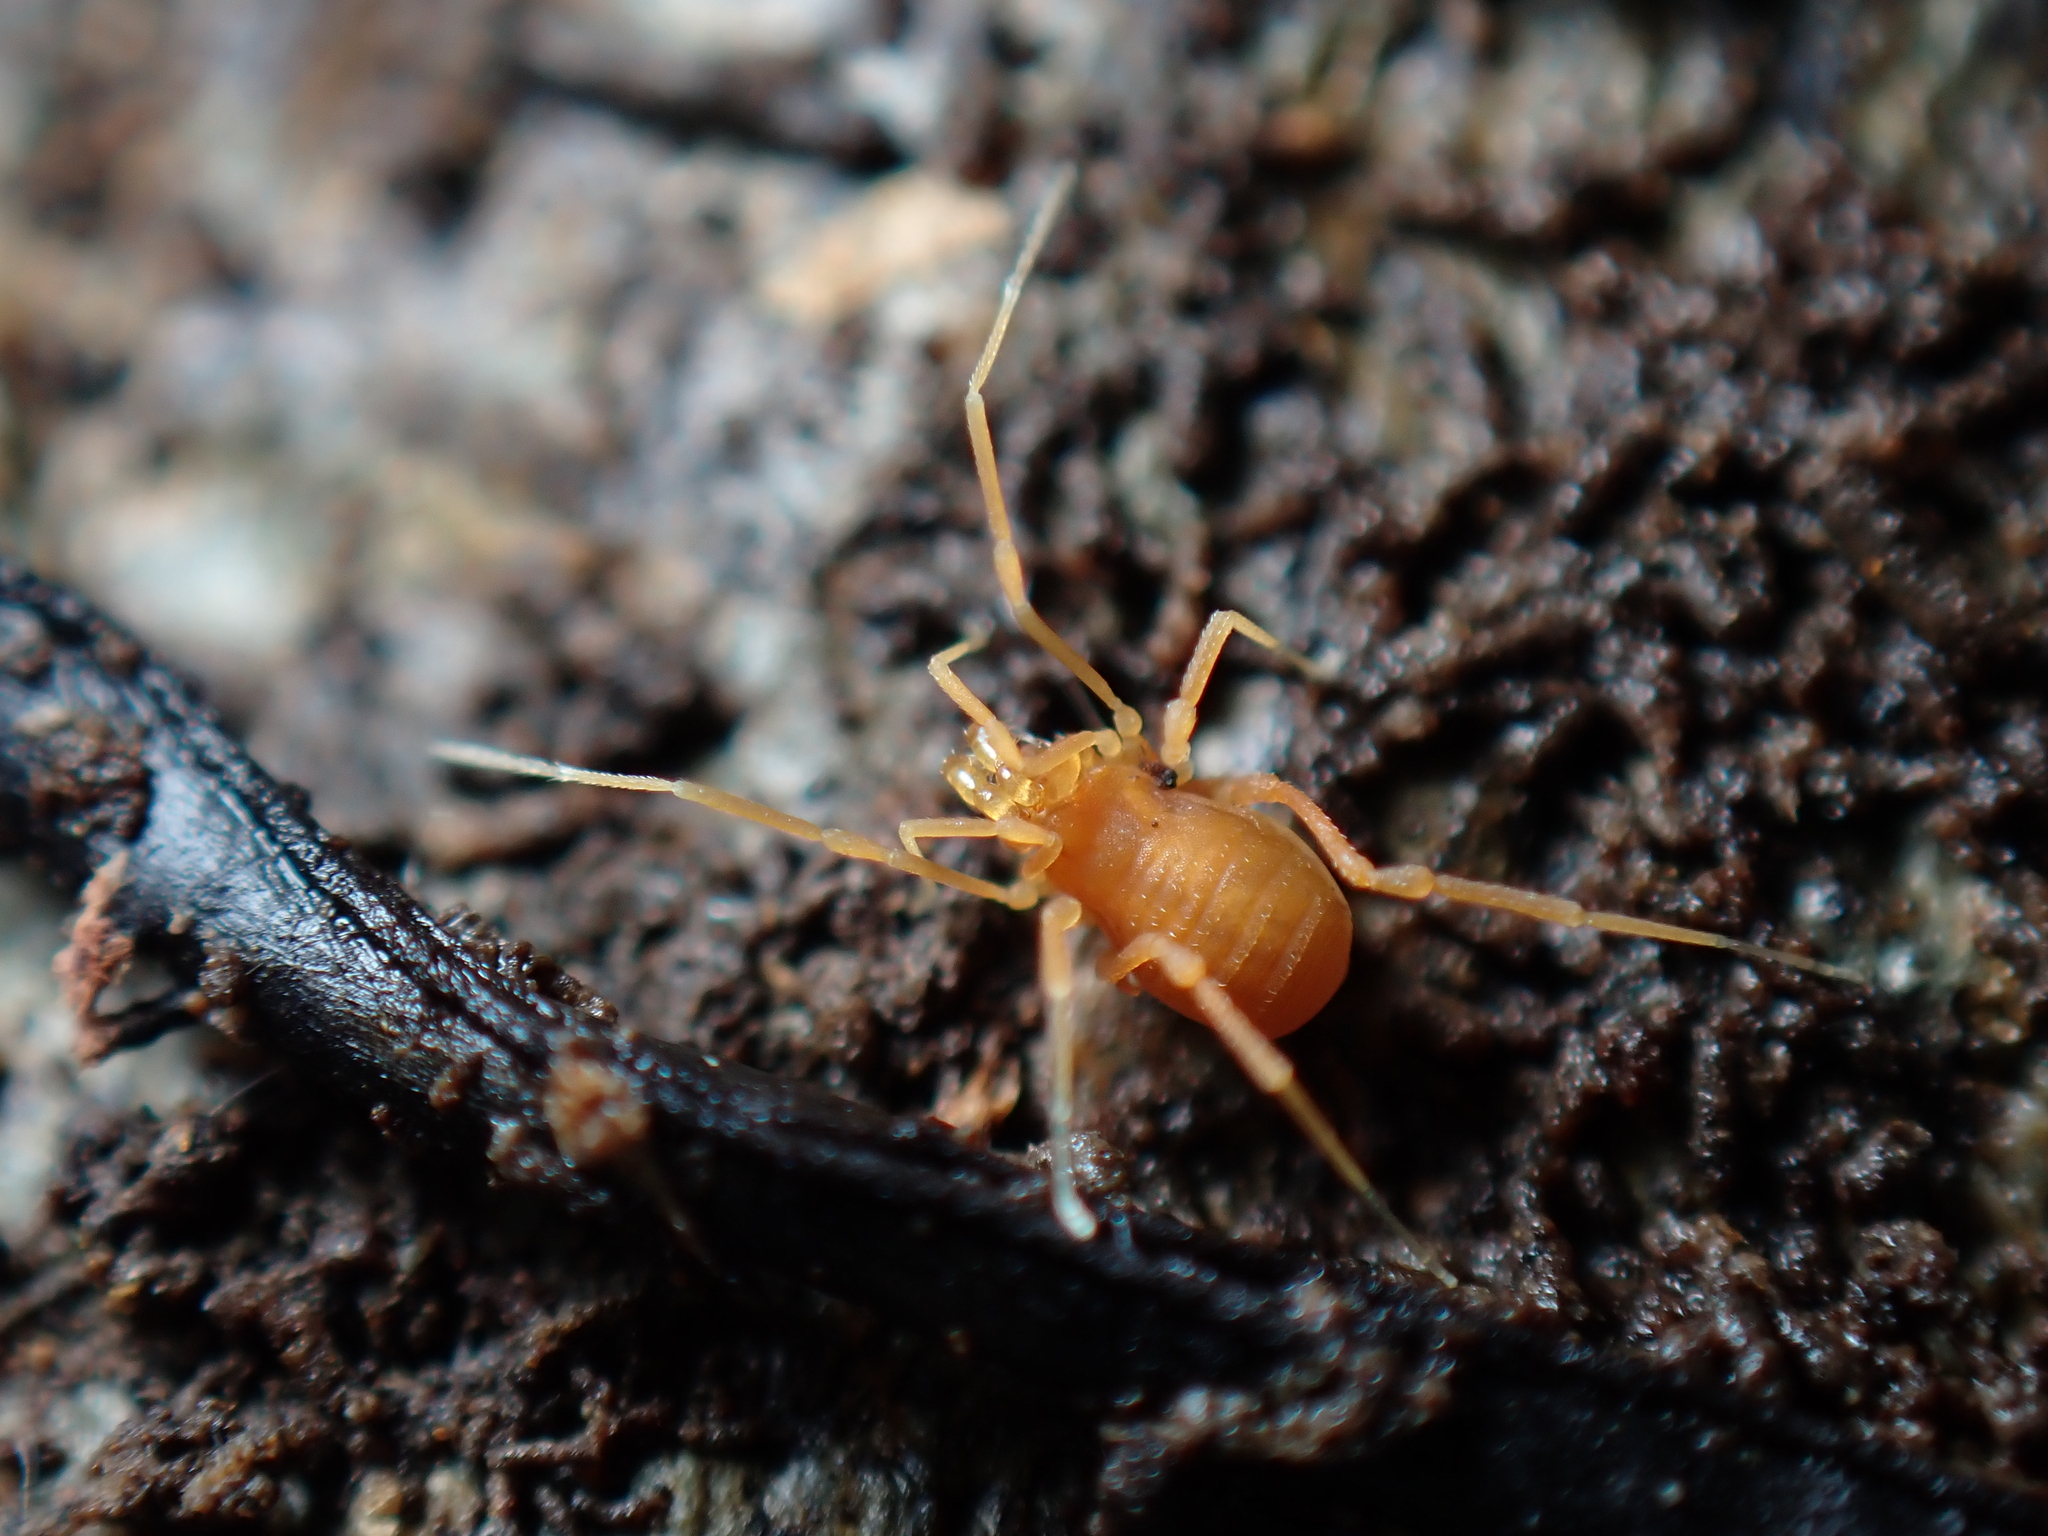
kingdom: Animalia
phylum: Arthropoda
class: Arachnida
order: Opiliones
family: Phalangodidae
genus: Scotolemon
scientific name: Scotolemon doriae
